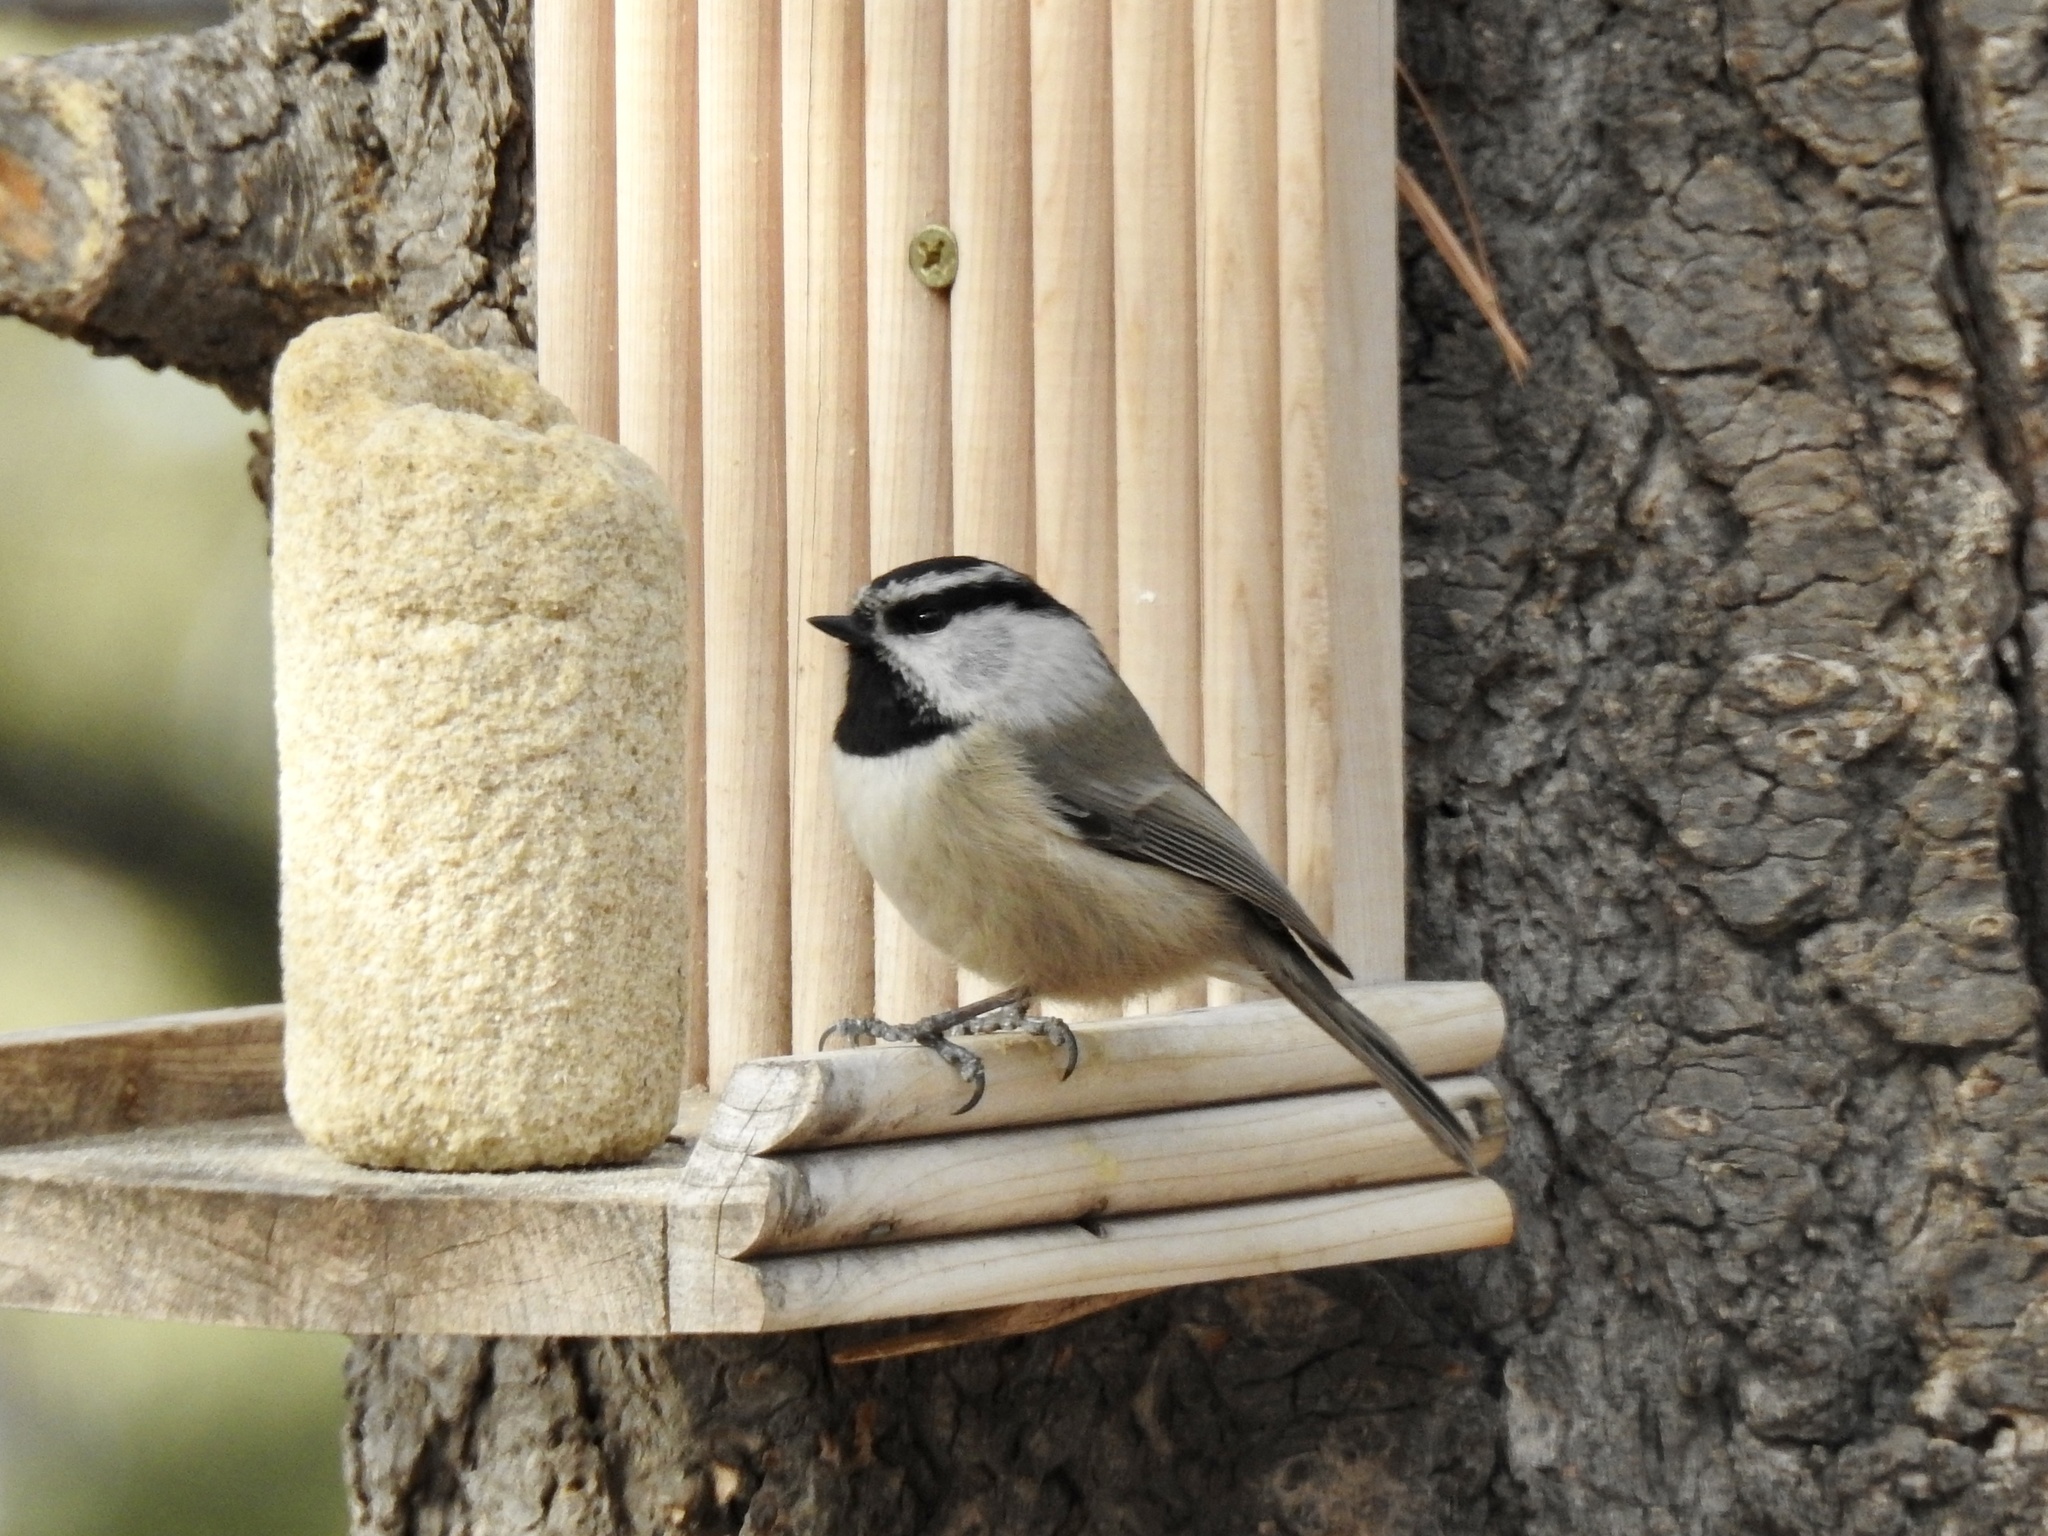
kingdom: Animalia
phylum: Chordata
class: Aves
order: Passeriformes
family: Paridae
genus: Poecile
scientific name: Poecile gambeli
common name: Mountain chickadee
